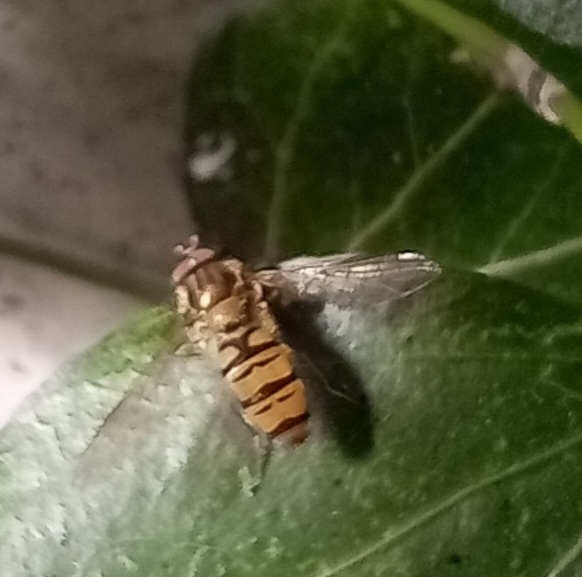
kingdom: Animalia
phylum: Arthropoda
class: Insecta
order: Diptera
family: Syrphidae
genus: Episyrphus
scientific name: Episyrphus balteatus
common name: Marmalade hoverfly
